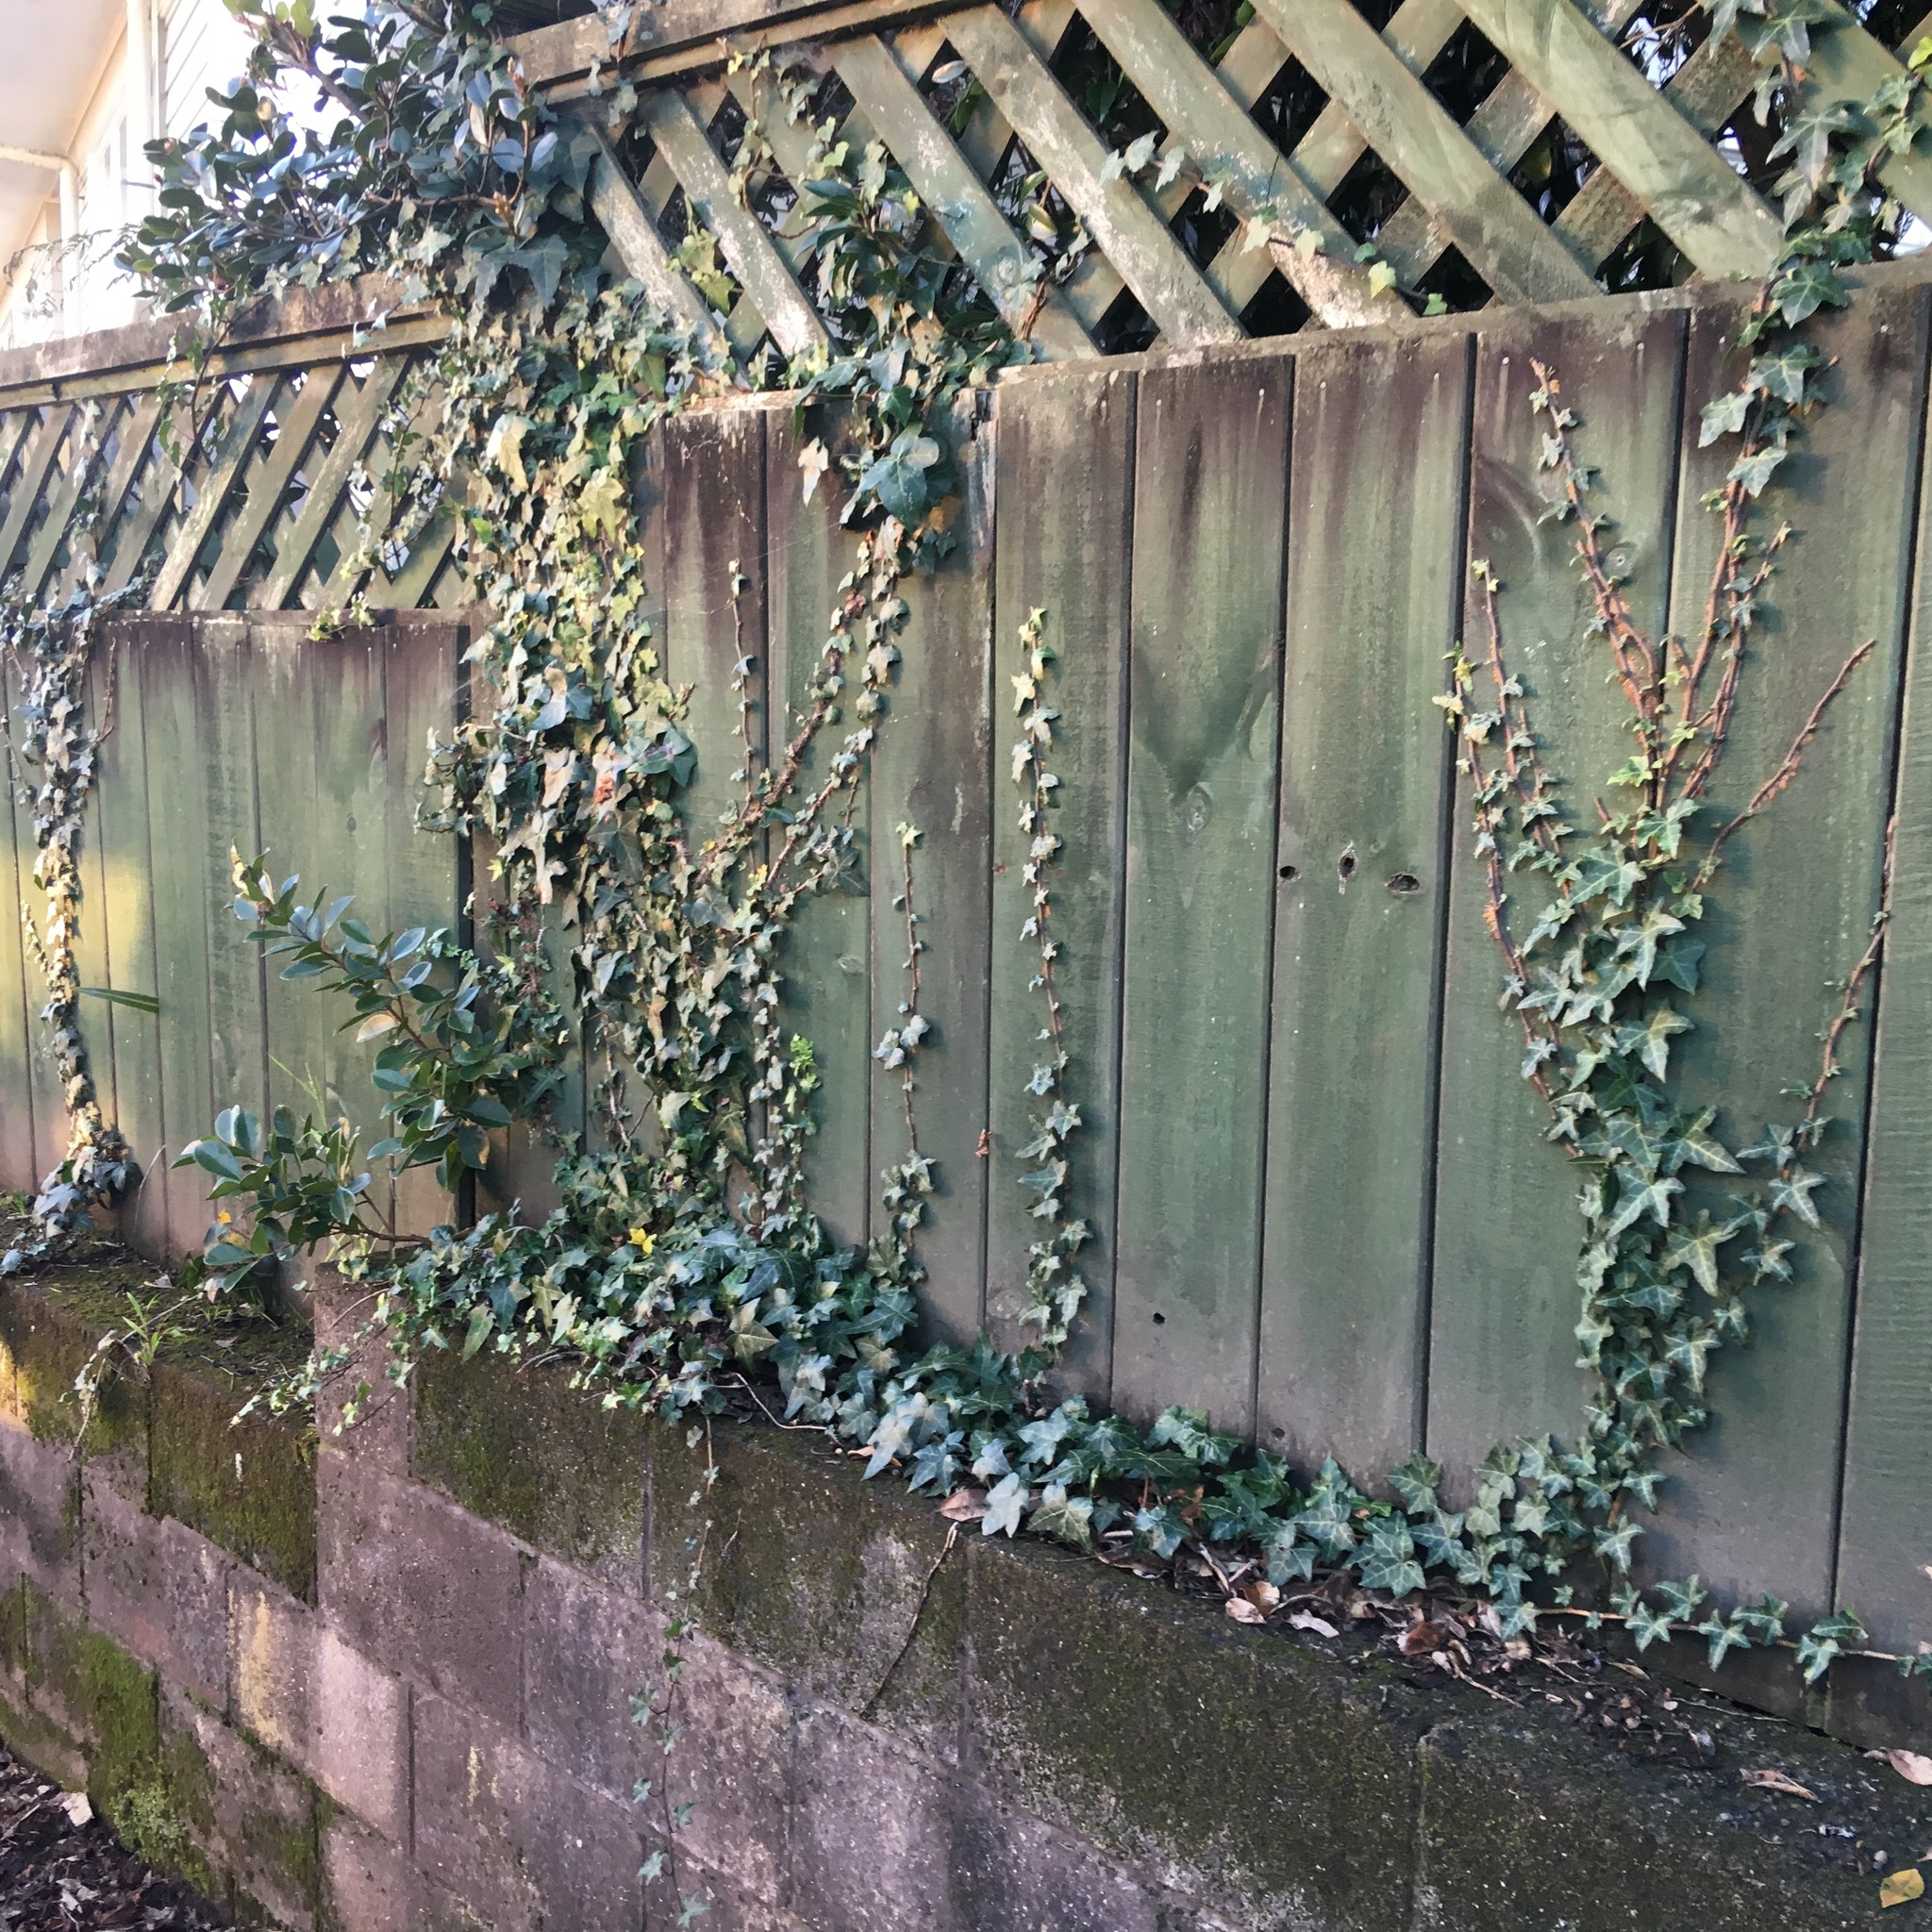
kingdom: Plantae
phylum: Tracheophyta
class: Magnoliopsida
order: Apiales
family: Araliaceae
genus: Hedera
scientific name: Hedera helix
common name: Ivy
